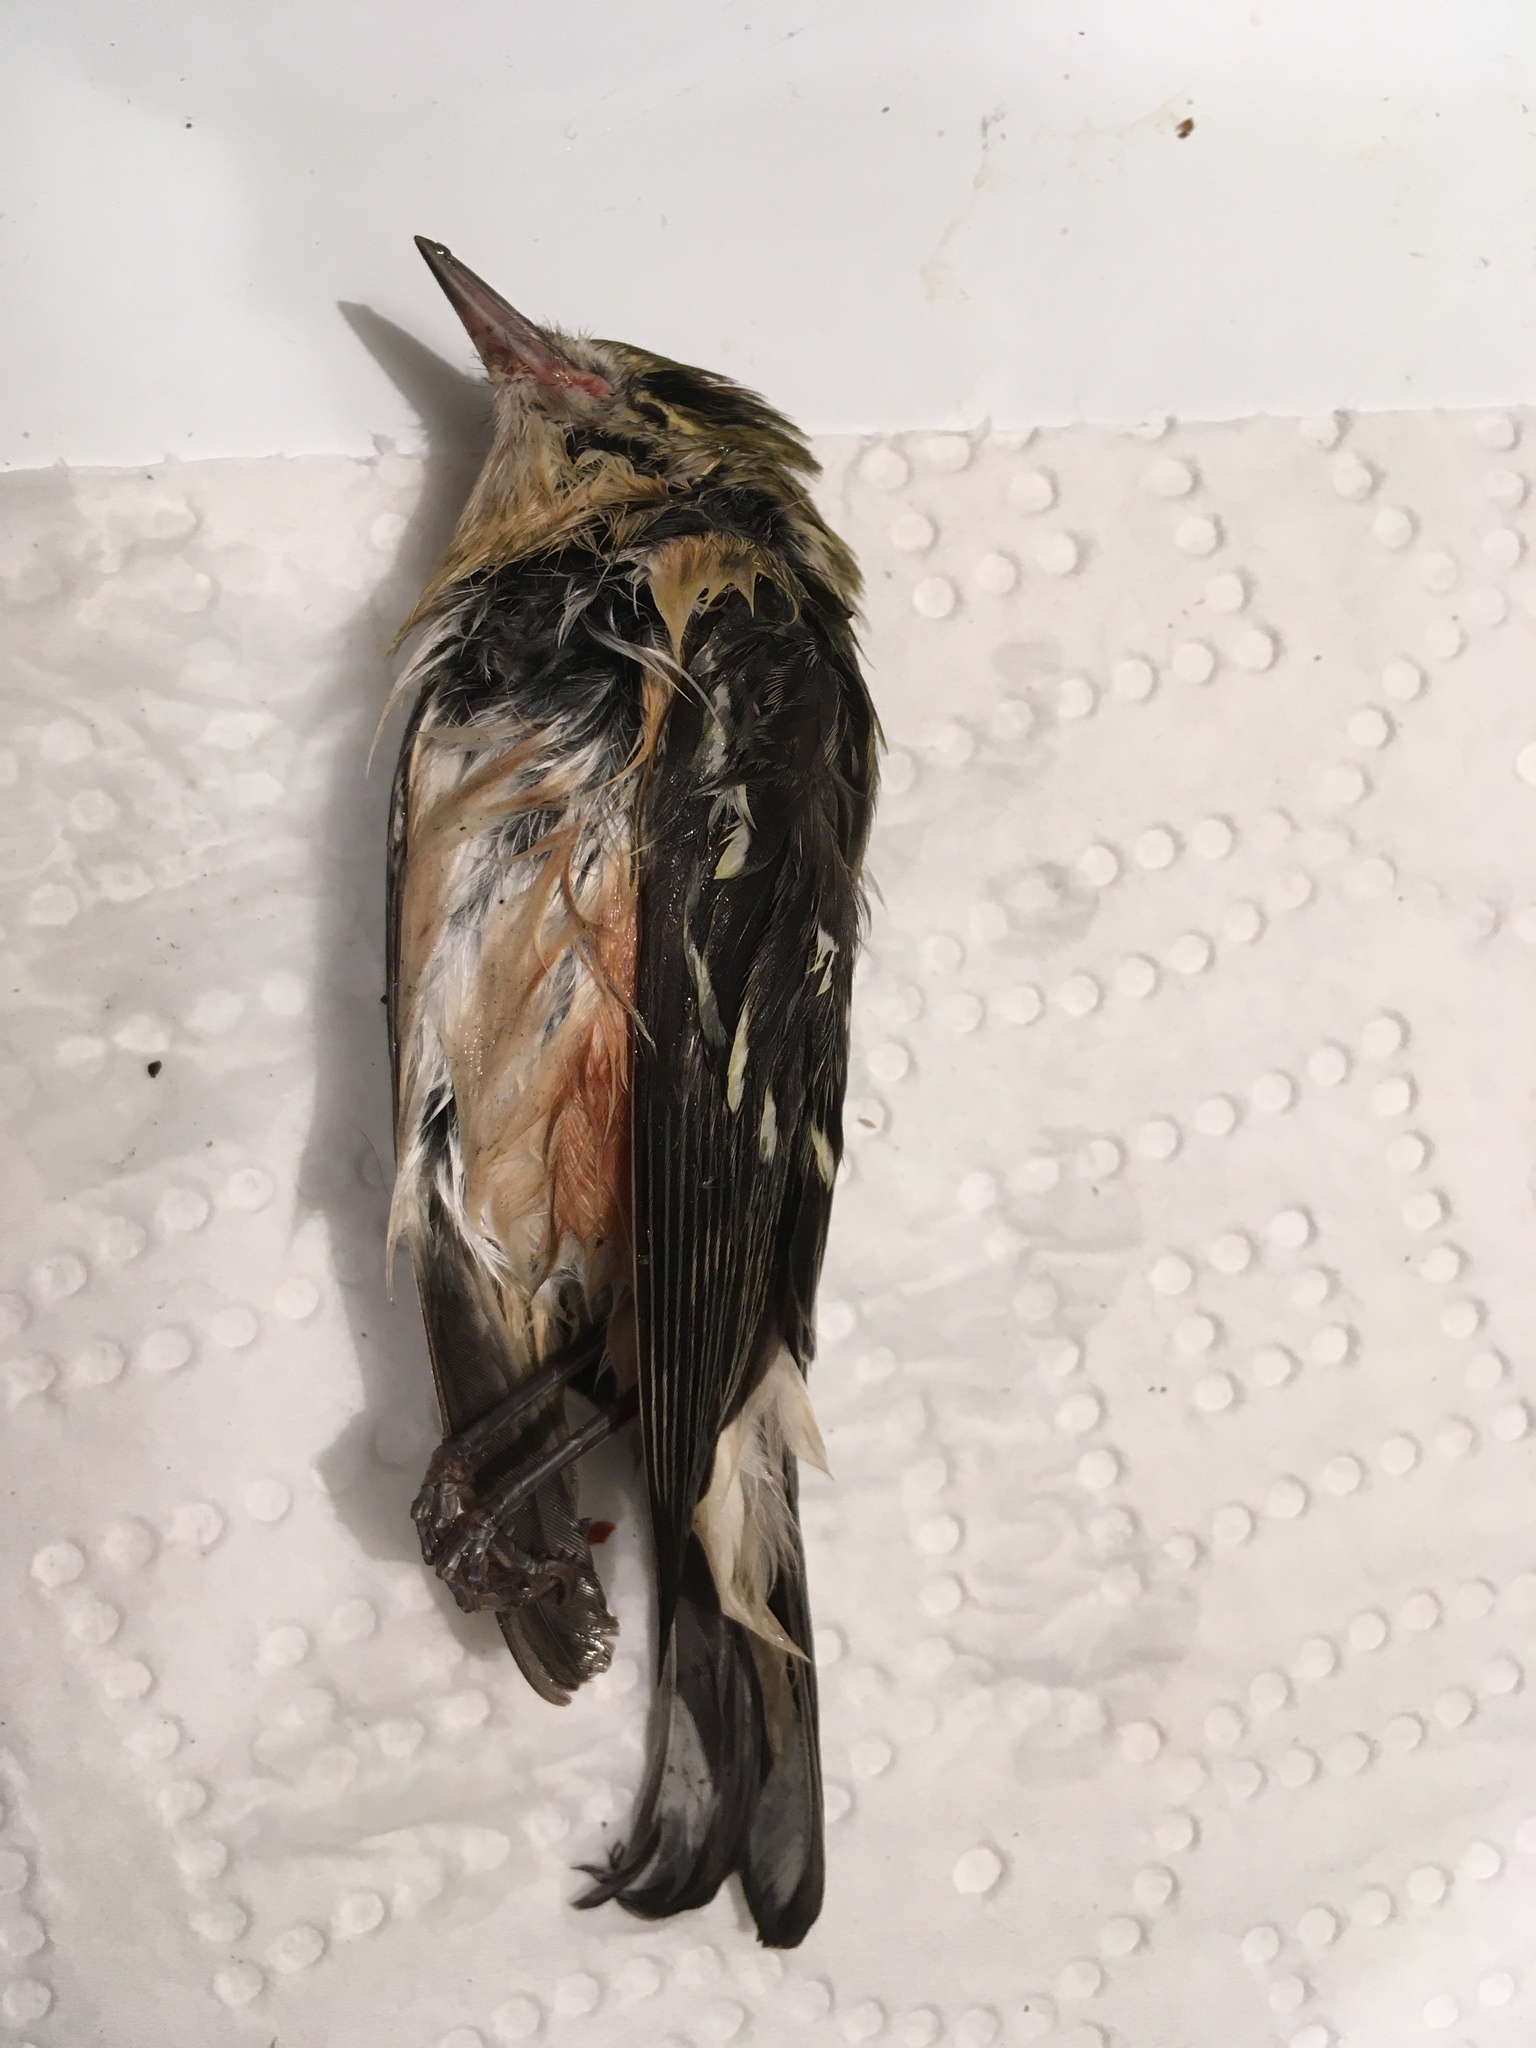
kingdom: Animalia
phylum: Chordata
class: Aves
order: Passeriformes
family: Parulidae
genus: Setophaga
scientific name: Setophaga castanea
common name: Bay-breasted warbler
